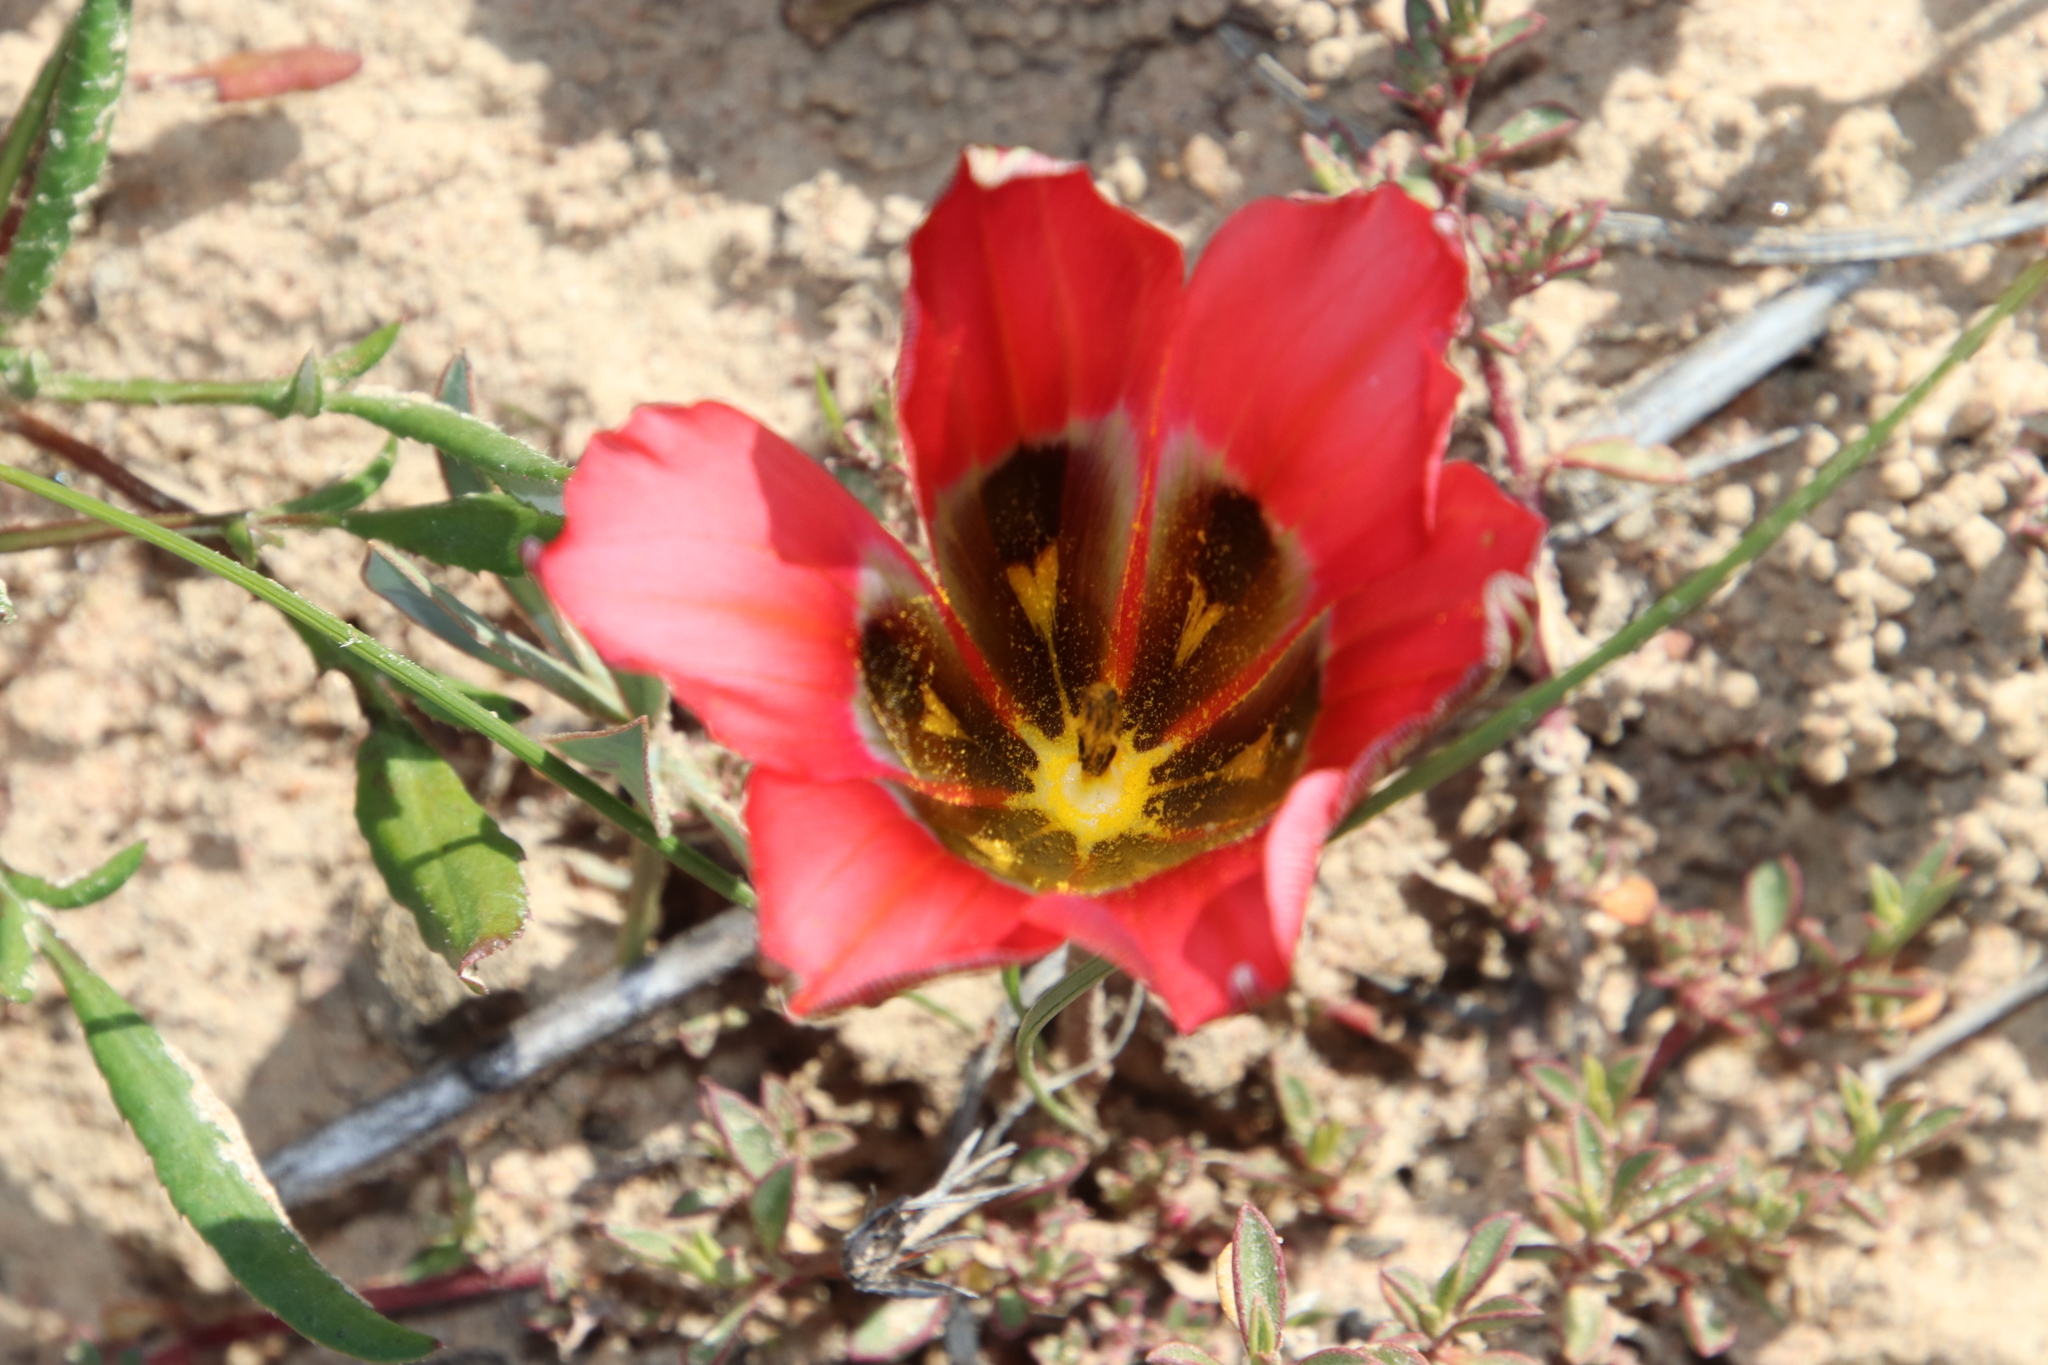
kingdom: Plantae
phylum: Tracheophyta
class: Liliopsida
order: Asparagales
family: Iridaceae
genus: Romulea
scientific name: Romulea sabulosa
